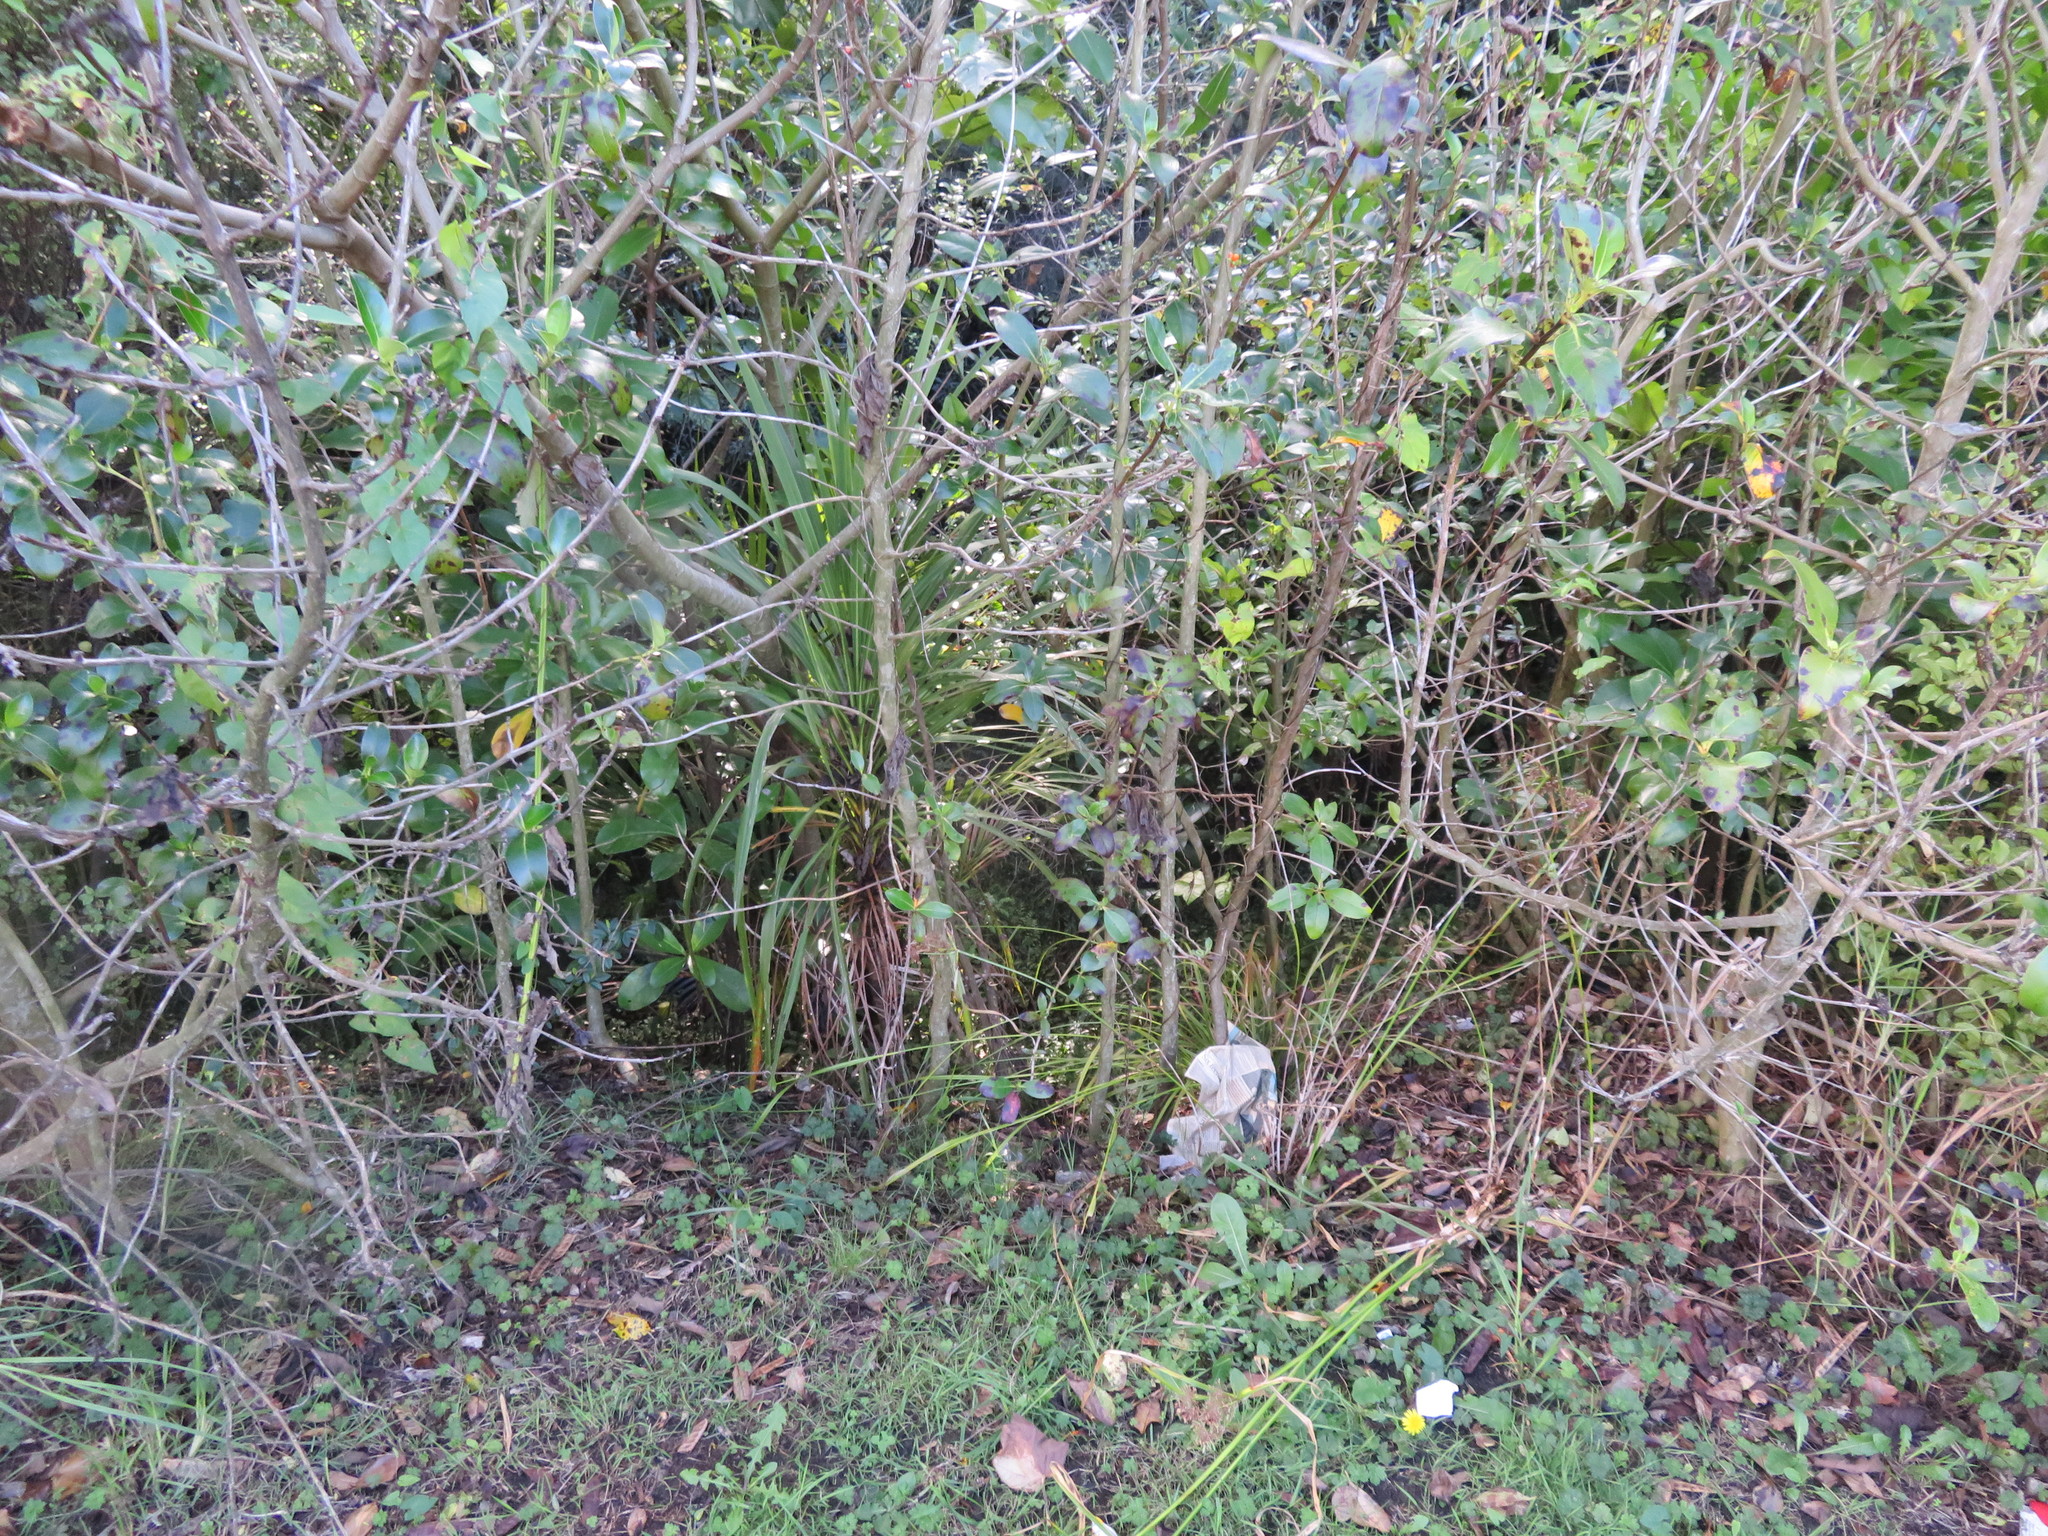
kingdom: Plantae
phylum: Tracheophyta
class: Liliopsida
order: Asparagales
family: Asparagaceae
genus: Cordyline
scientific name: Cordyline australis
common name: Cabbage-palm
